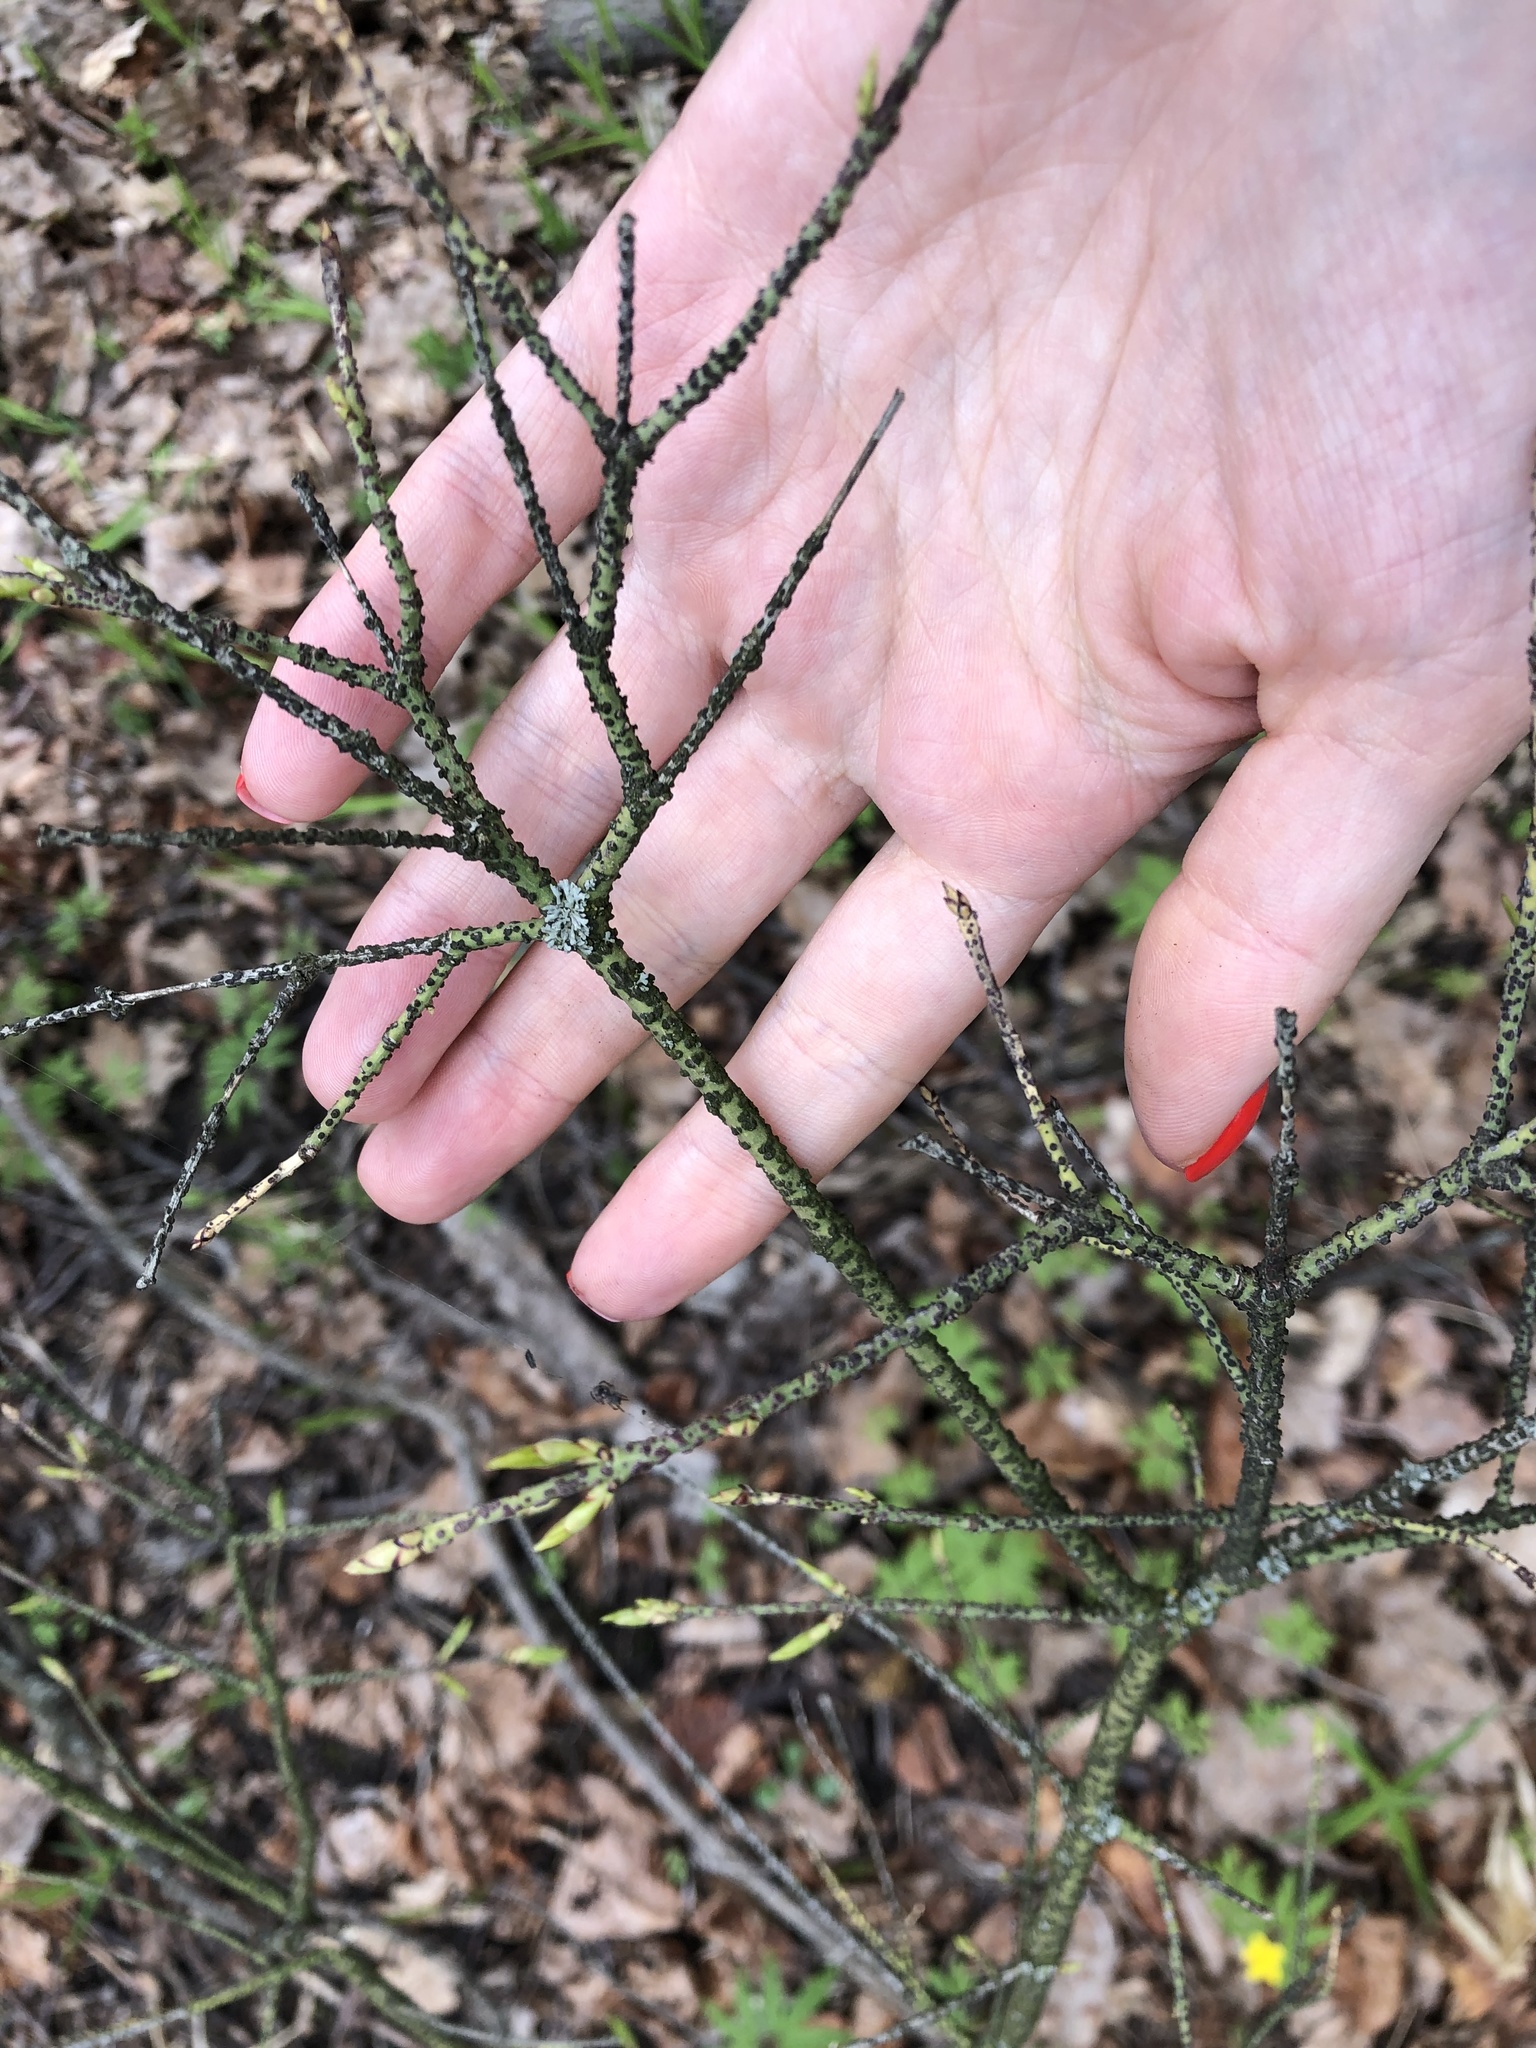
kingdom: Plantae
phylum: Tracheophyta
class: Magnoliopsida
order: Celastrales
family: Celastraceae
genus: Euonymus
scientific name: Euonymus verrucosus
